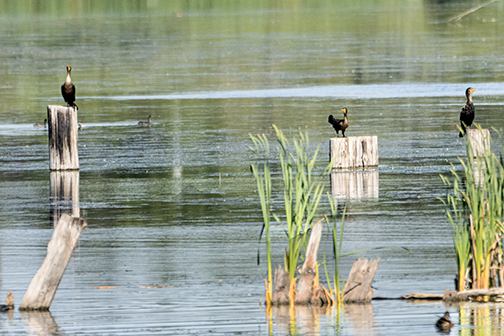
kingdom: Animalia
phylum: Chordata
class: Aves
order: Suliformes
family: Phalacrocoracidae
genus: Phalacrocorax
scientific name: Phalacrocorax auritus
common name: Double-crested cormorant
